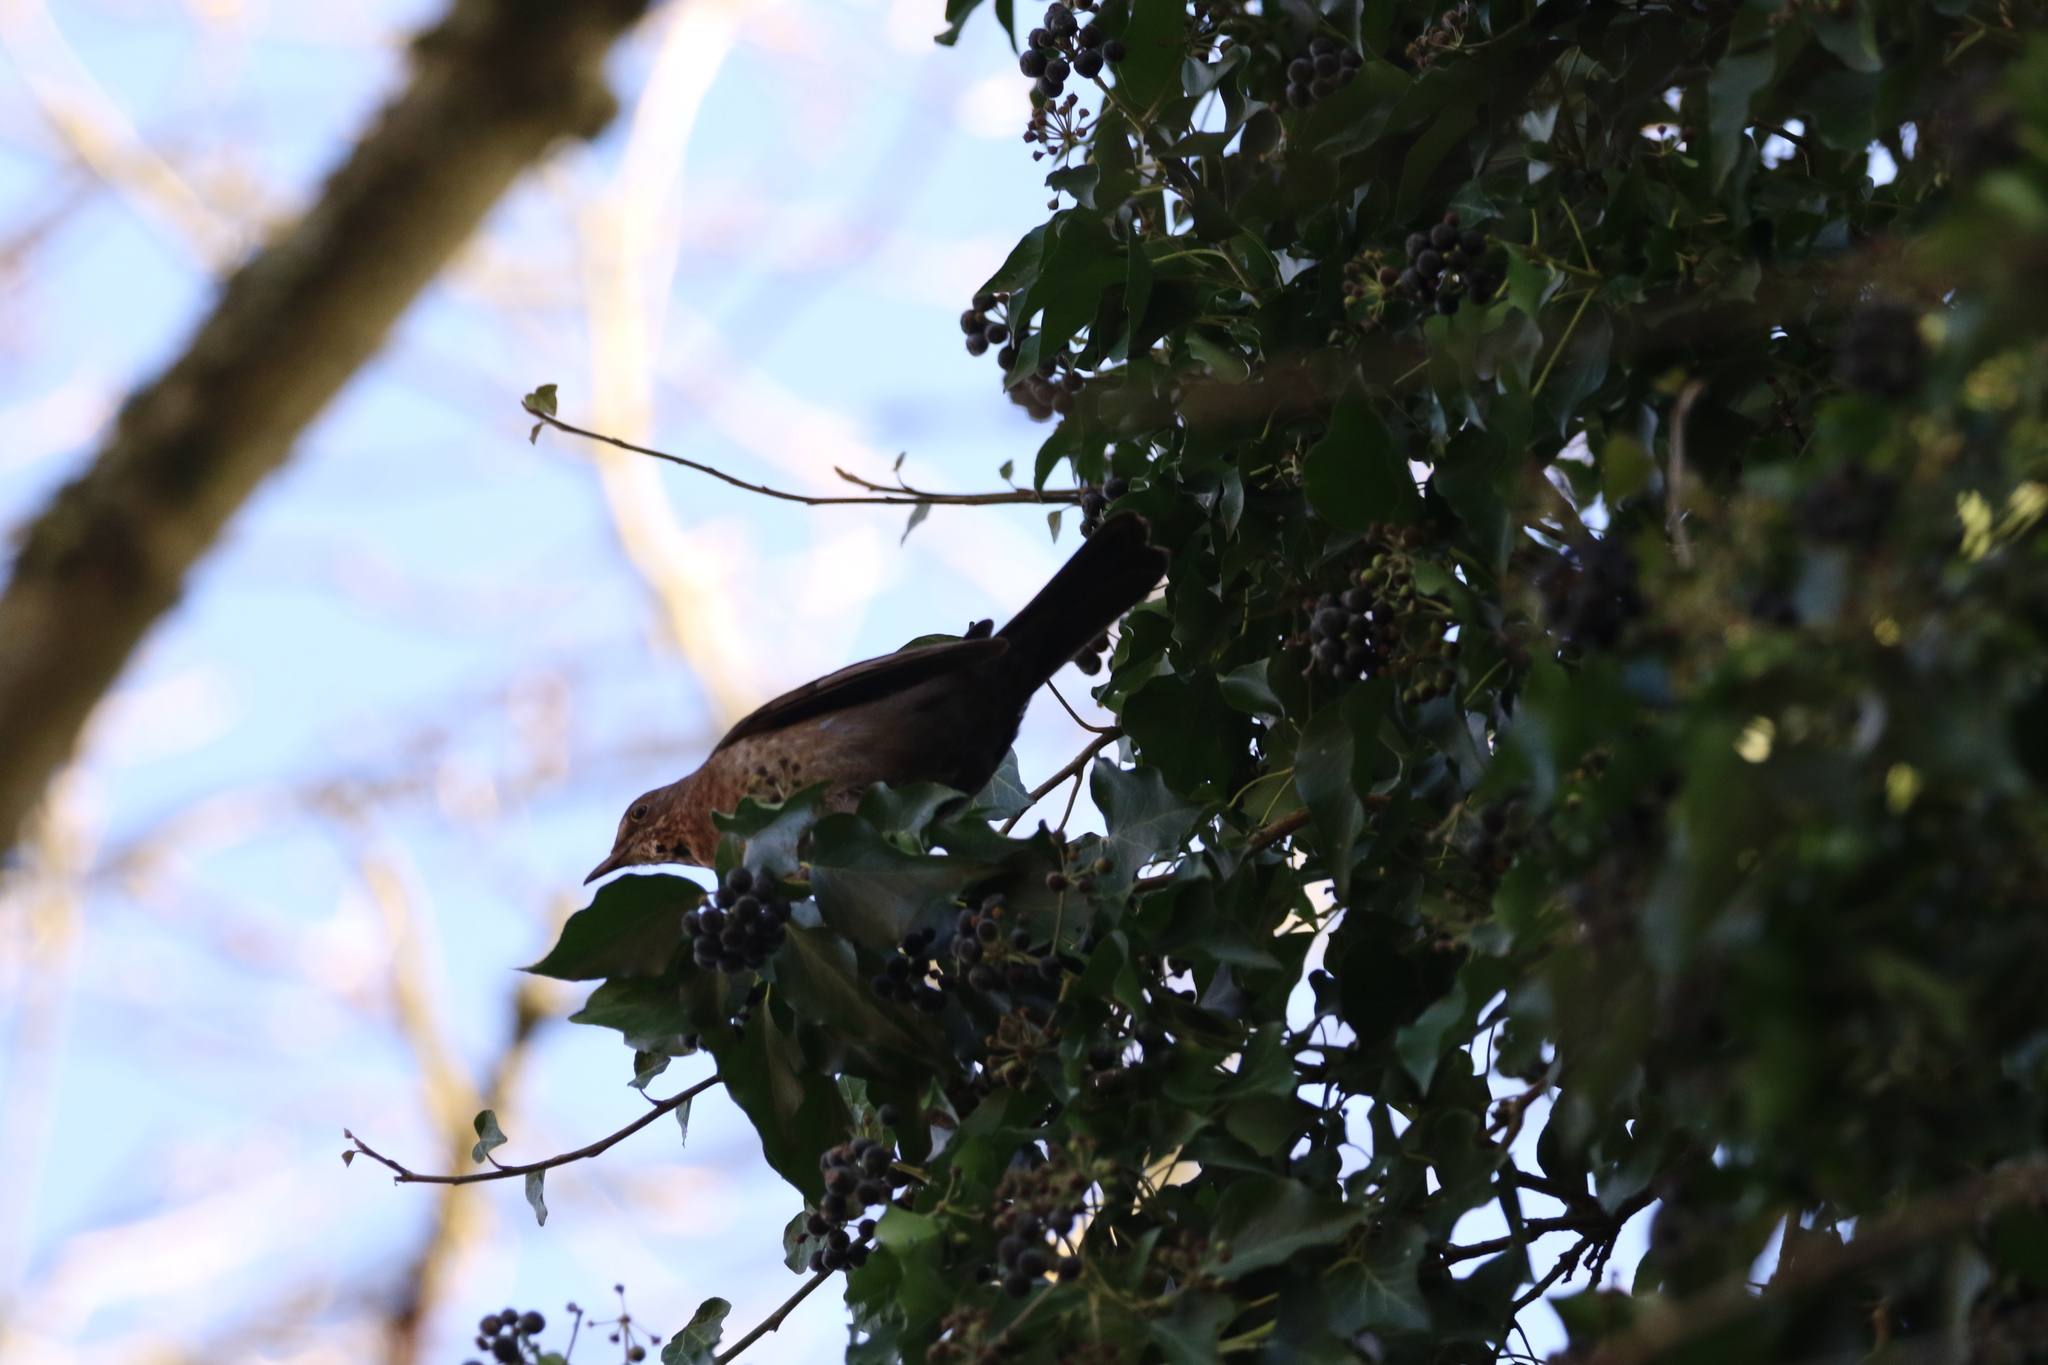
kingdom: Animalia
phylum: Chordata
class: Aves
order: Passeriformes
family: Turdidae
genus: Turdus
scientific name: Turdus merula
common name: Common blackbird
